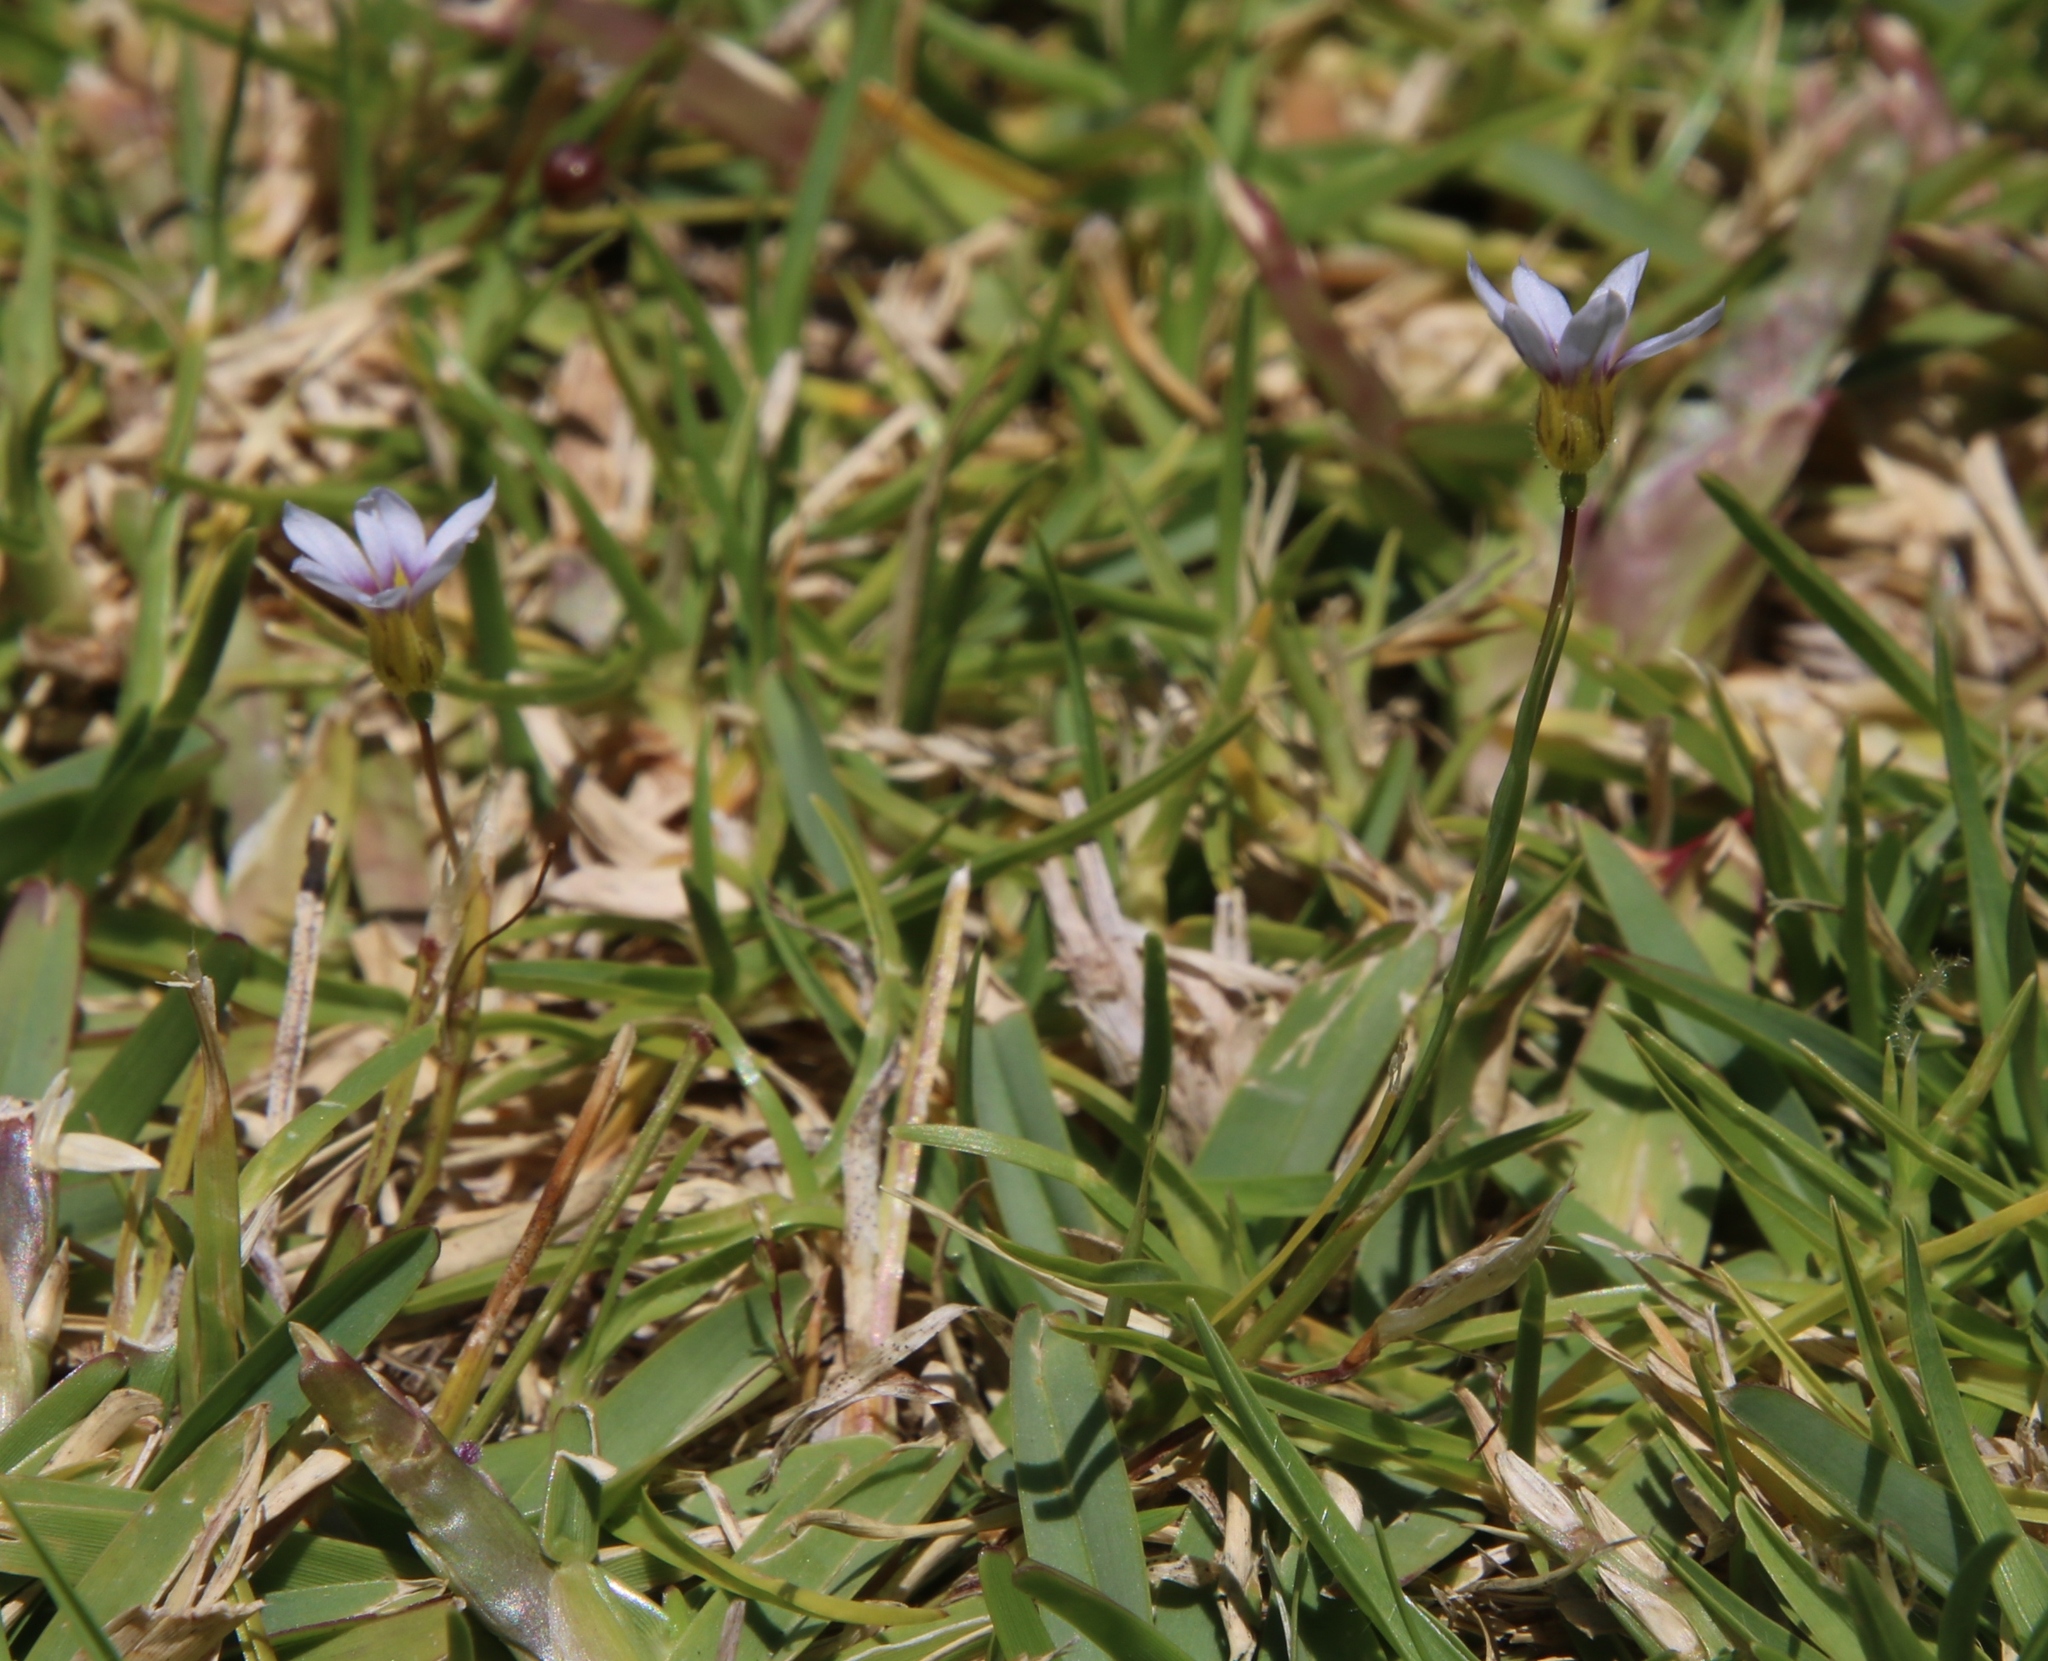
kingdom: Plantae
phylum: Tracheophyta
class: Liliopsida
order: Asparagales
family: Iridaceae
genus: Sisyrinchium
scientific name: Sisyrinchium micranthum
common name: Bermuda pigroot
